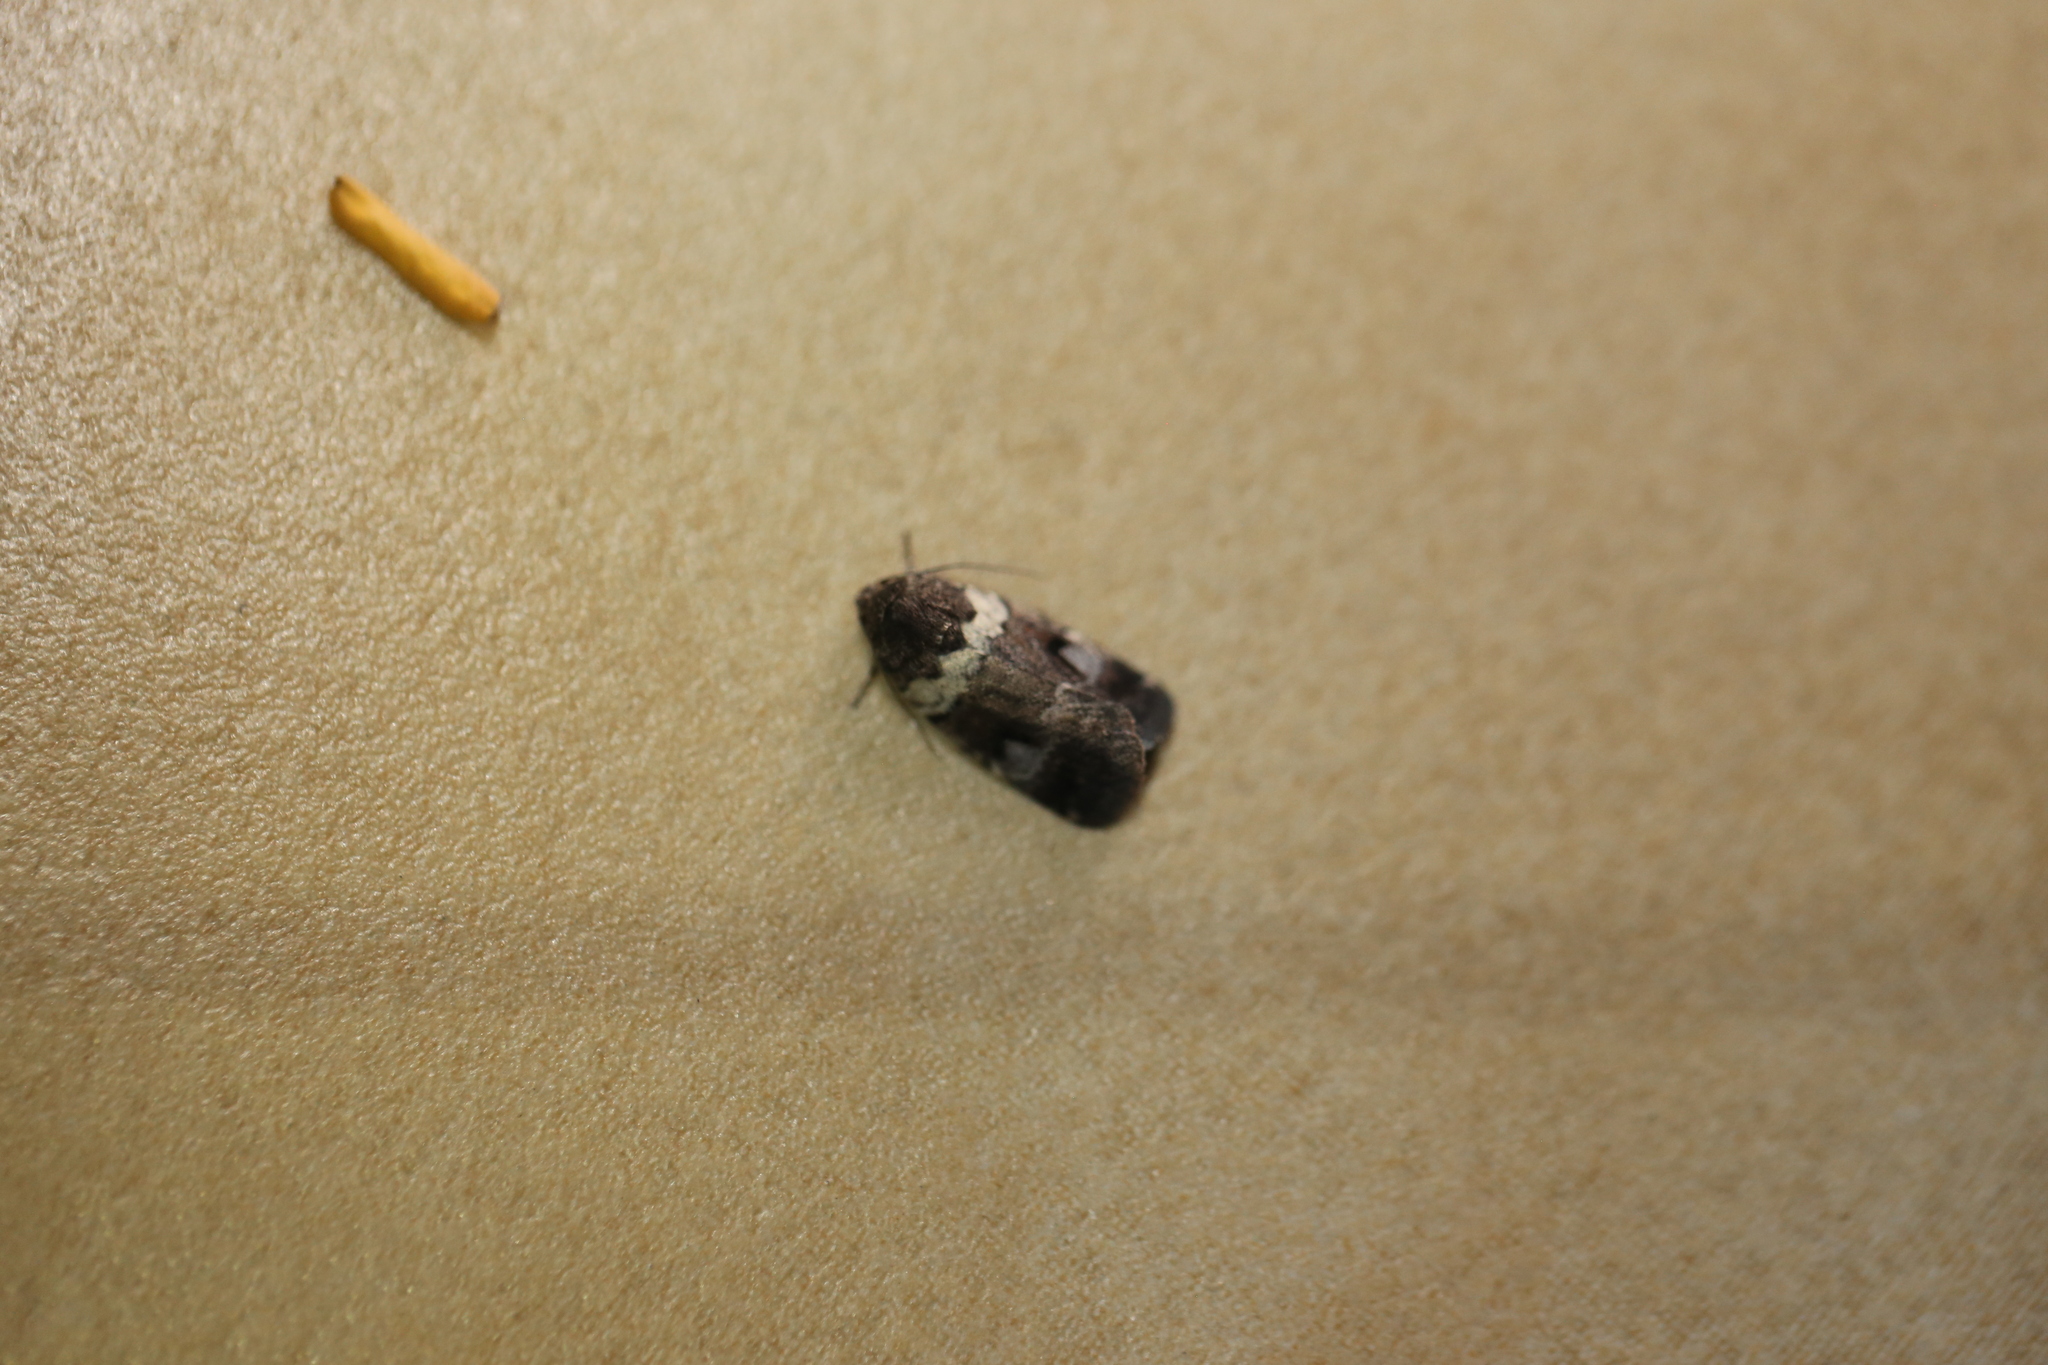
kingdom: Animalia
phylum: Arthropoda
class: Insecta
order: Lepidoptera
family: Noctuidae
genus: Thoracolopha
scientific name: Thoracolopha flexirena
